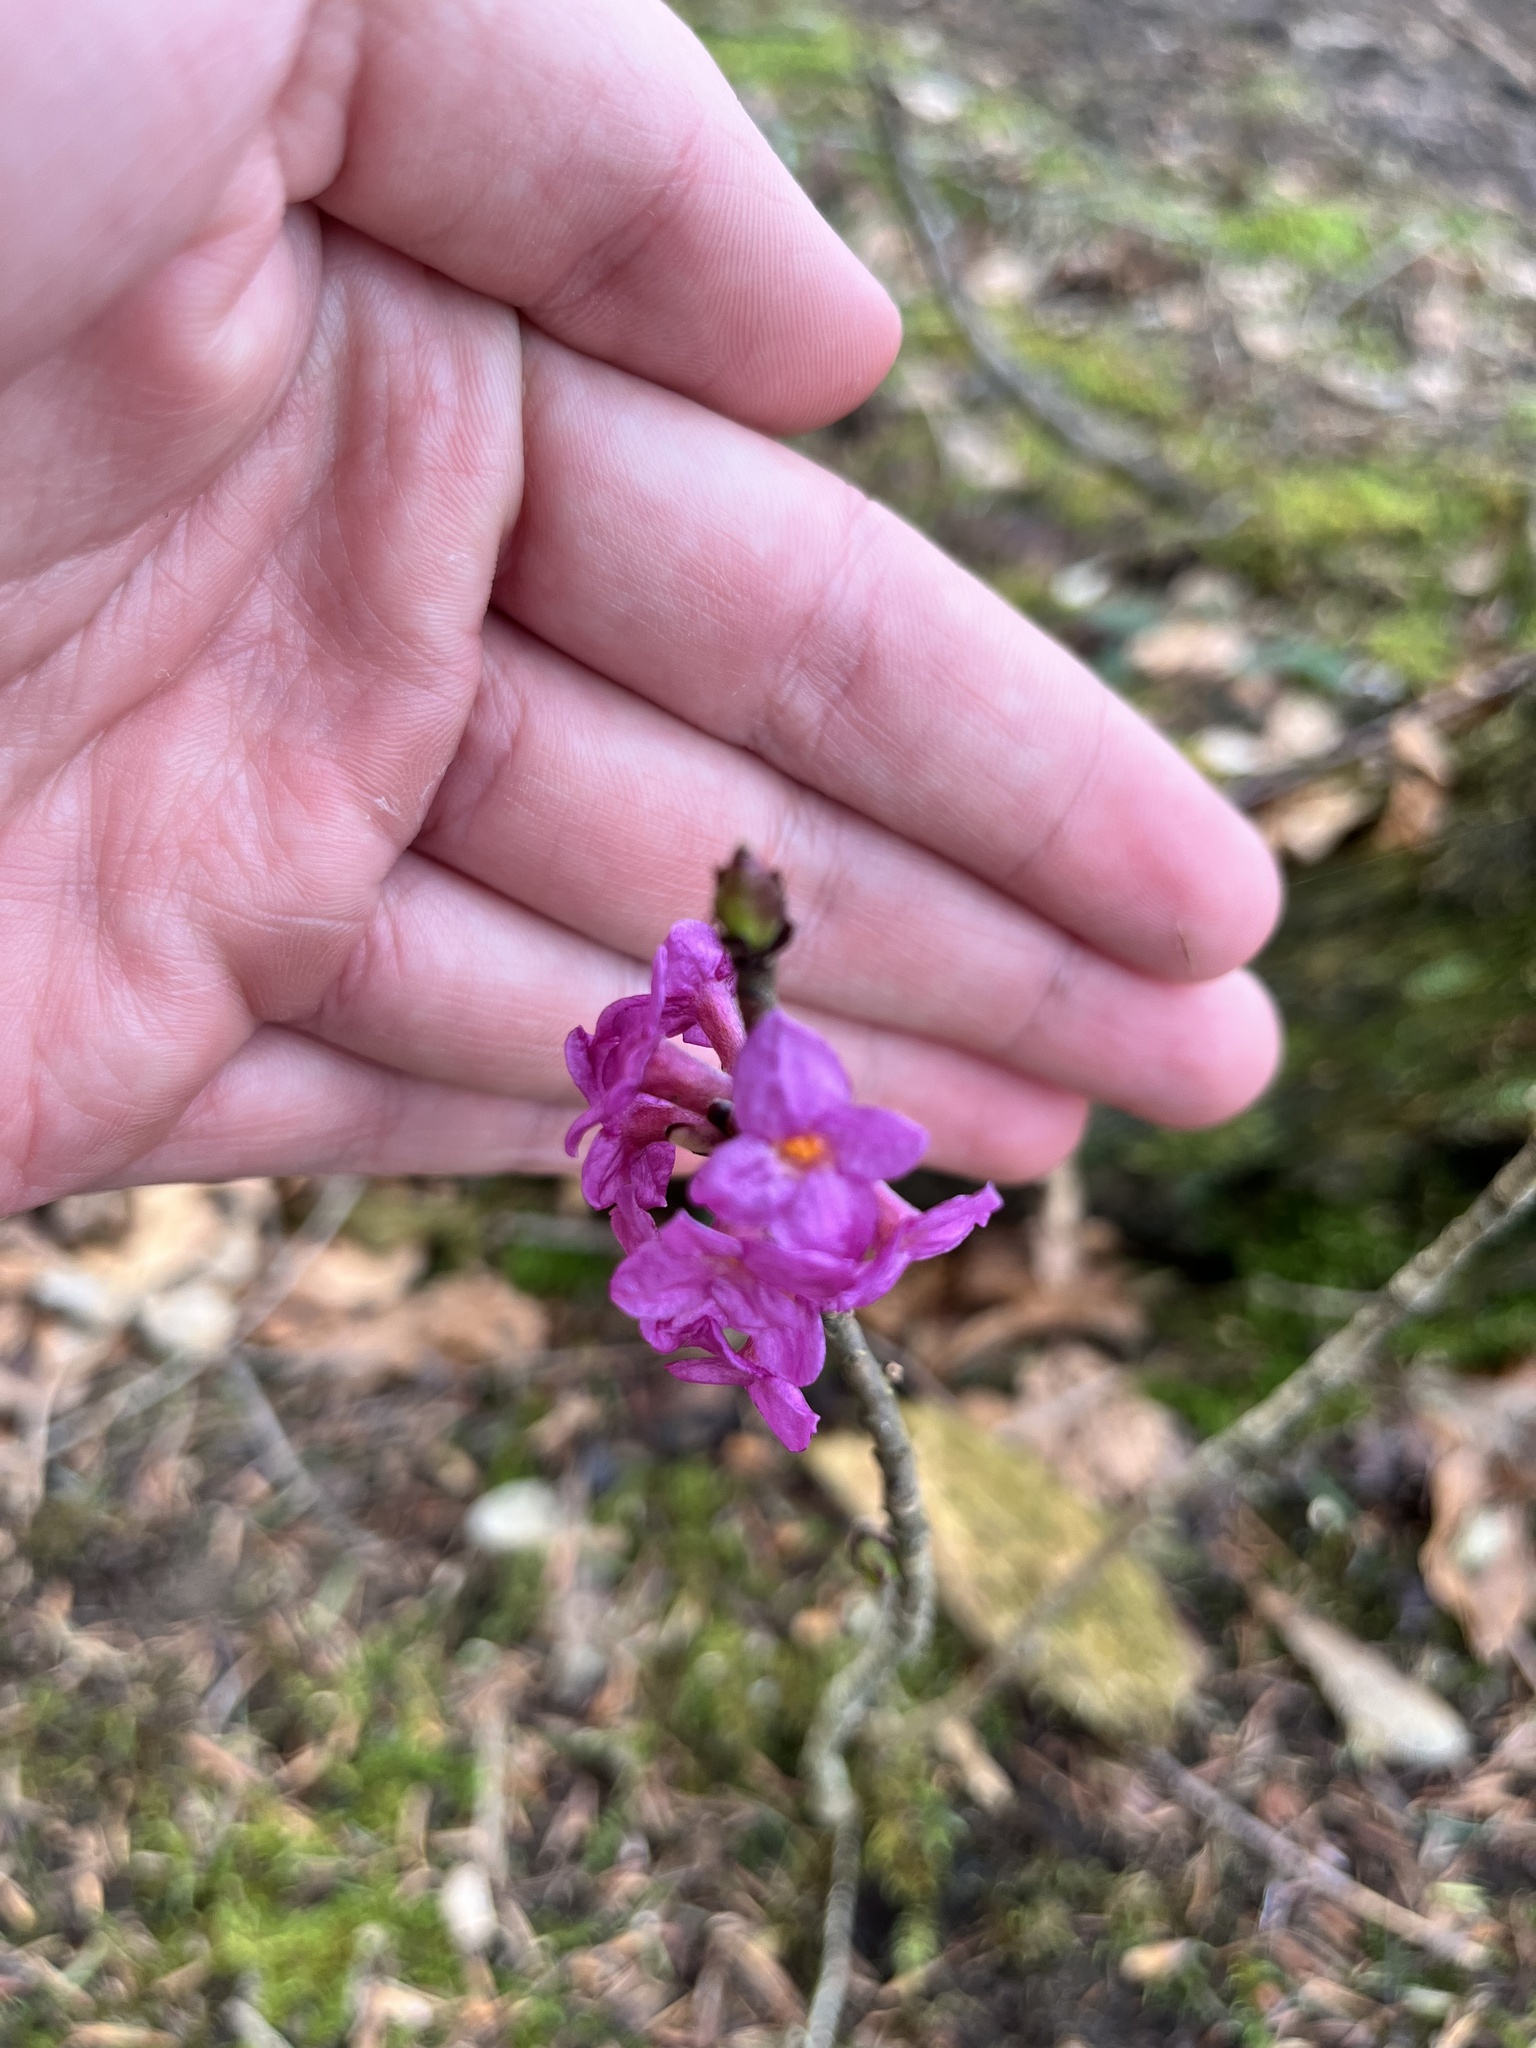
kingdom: Plantae
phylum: Tracheophyta
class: Magnoliopsida
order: Malvales
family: Thymelaeaceae
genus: Daphne
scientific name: Daphne mezereum
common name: Mezereon
